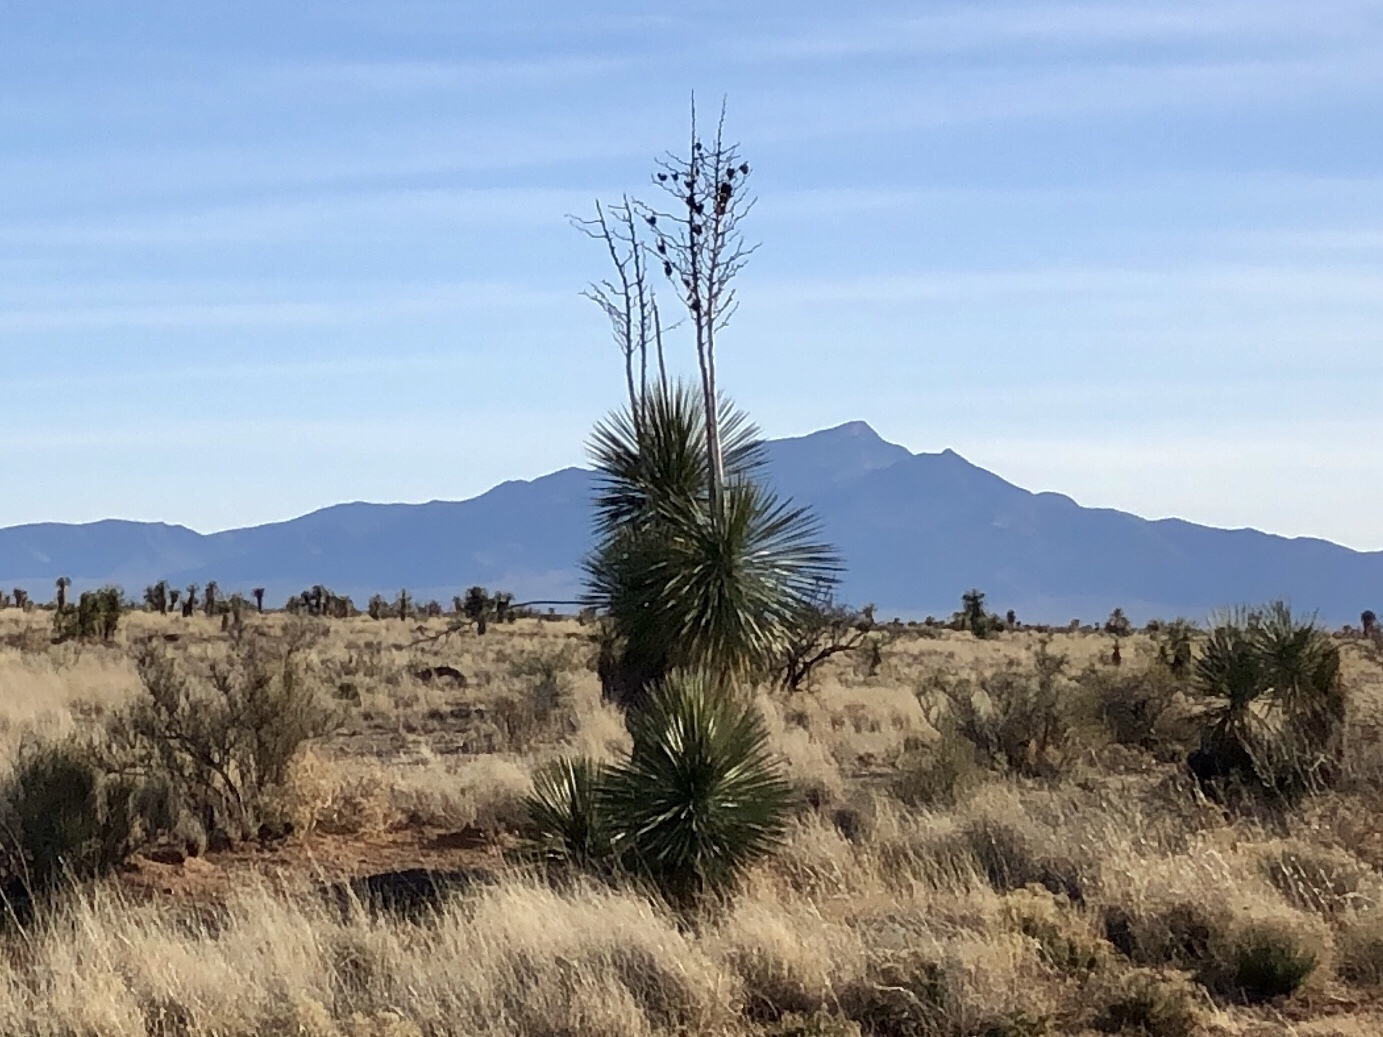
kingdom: Plantae
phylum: Tracheophyta
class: Liliopsida
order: Asparagales
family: Asparagaceae
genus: Yucca
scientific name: Yucca elata
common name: Palmella
